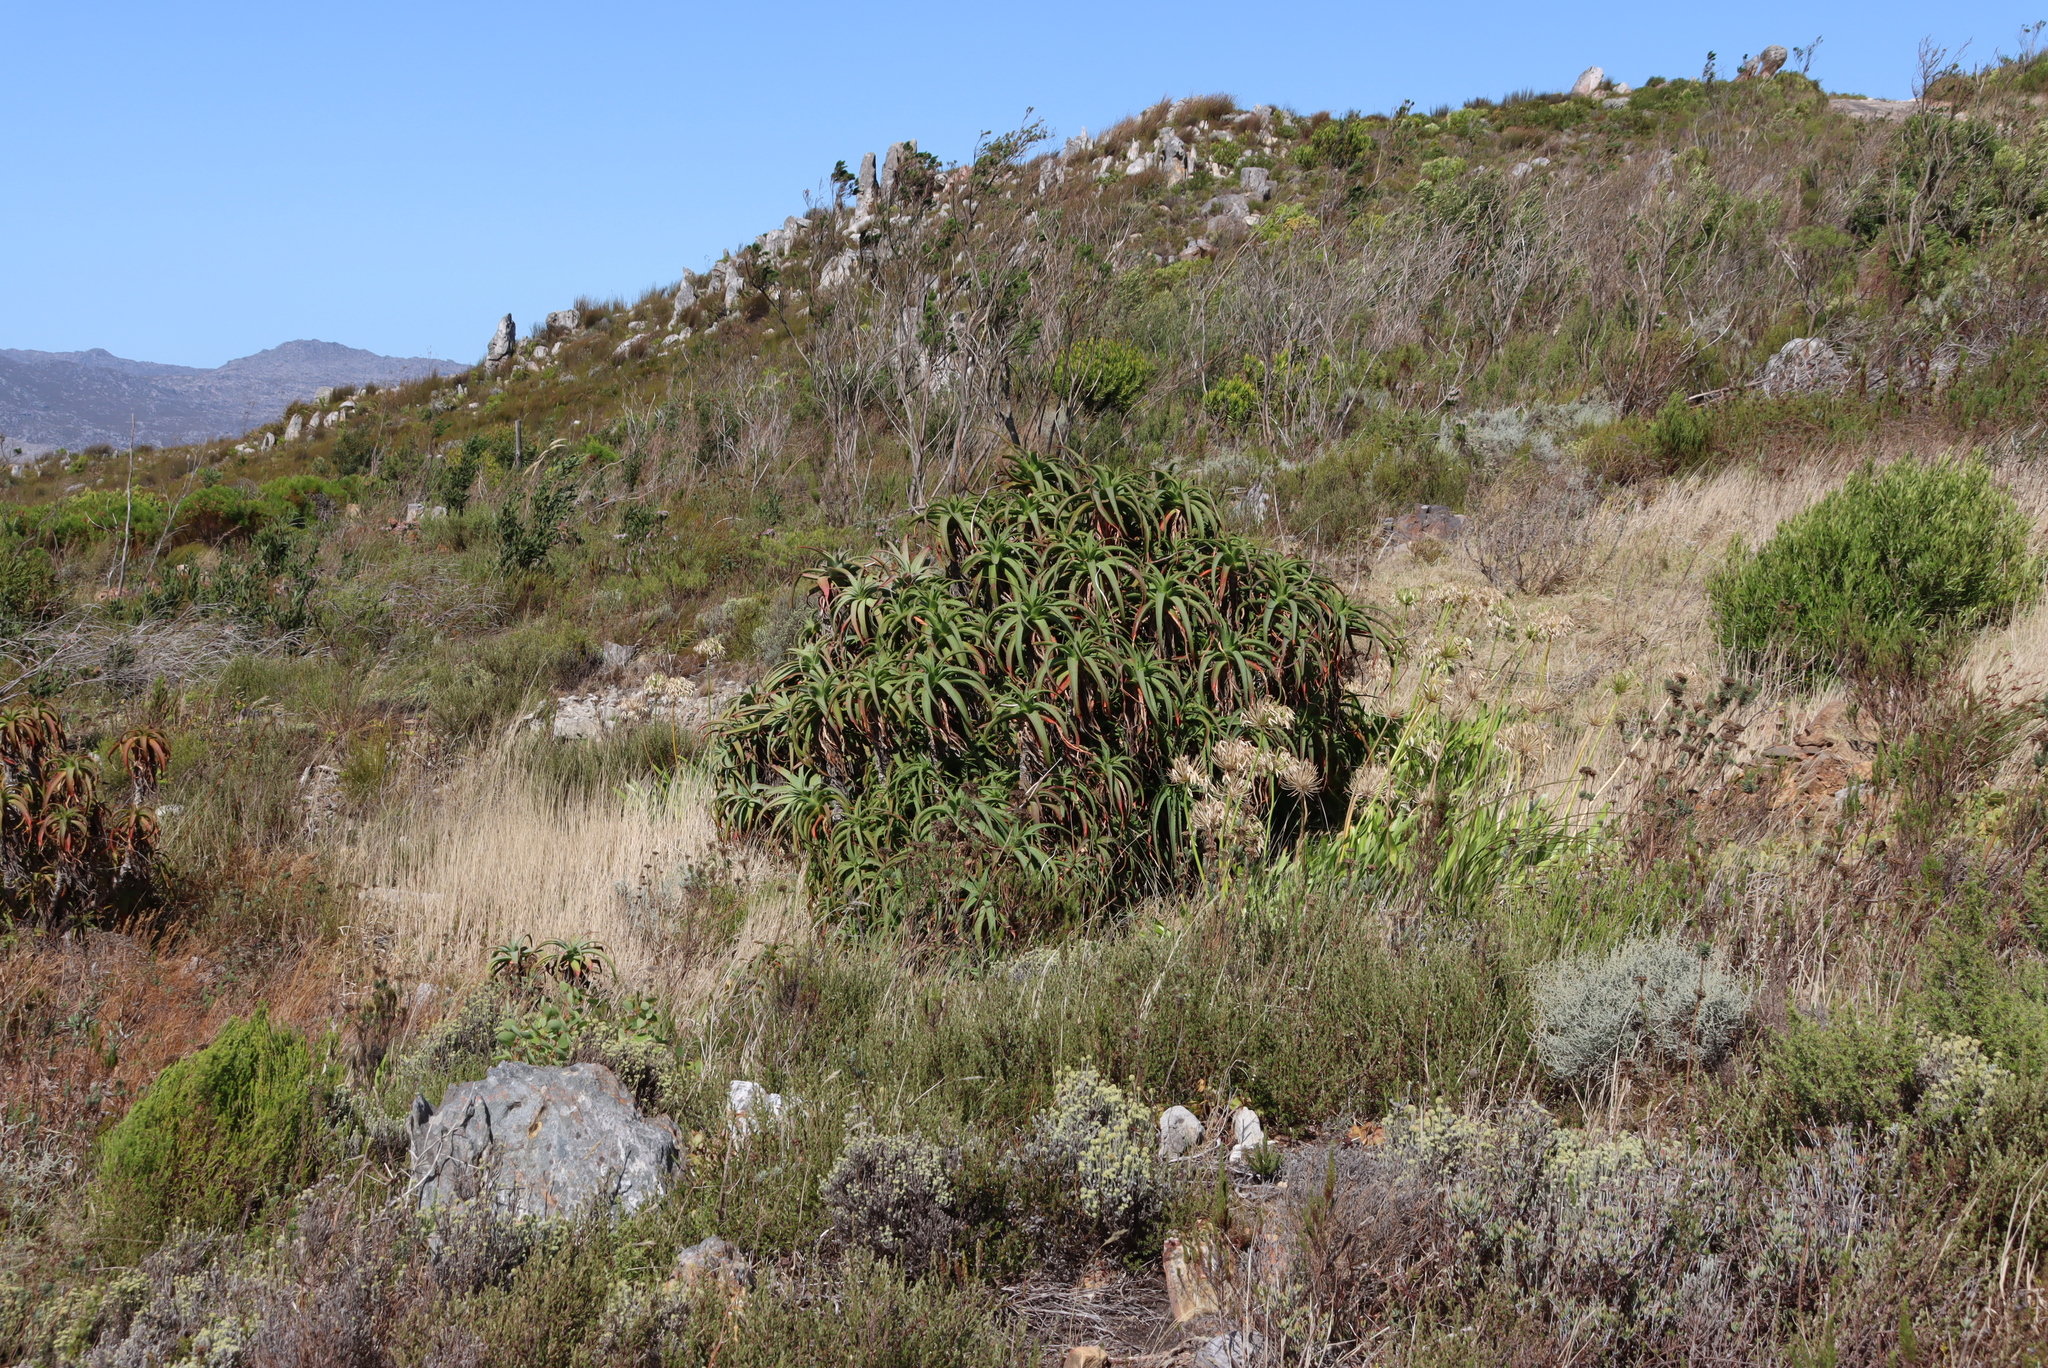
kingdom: Plantae
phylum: Tracheophyta
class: Liliopsida
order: Asparagales
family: Asphodelaceae
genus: Aloe
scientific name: Aloe arborescens
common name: Candelabra aloe
